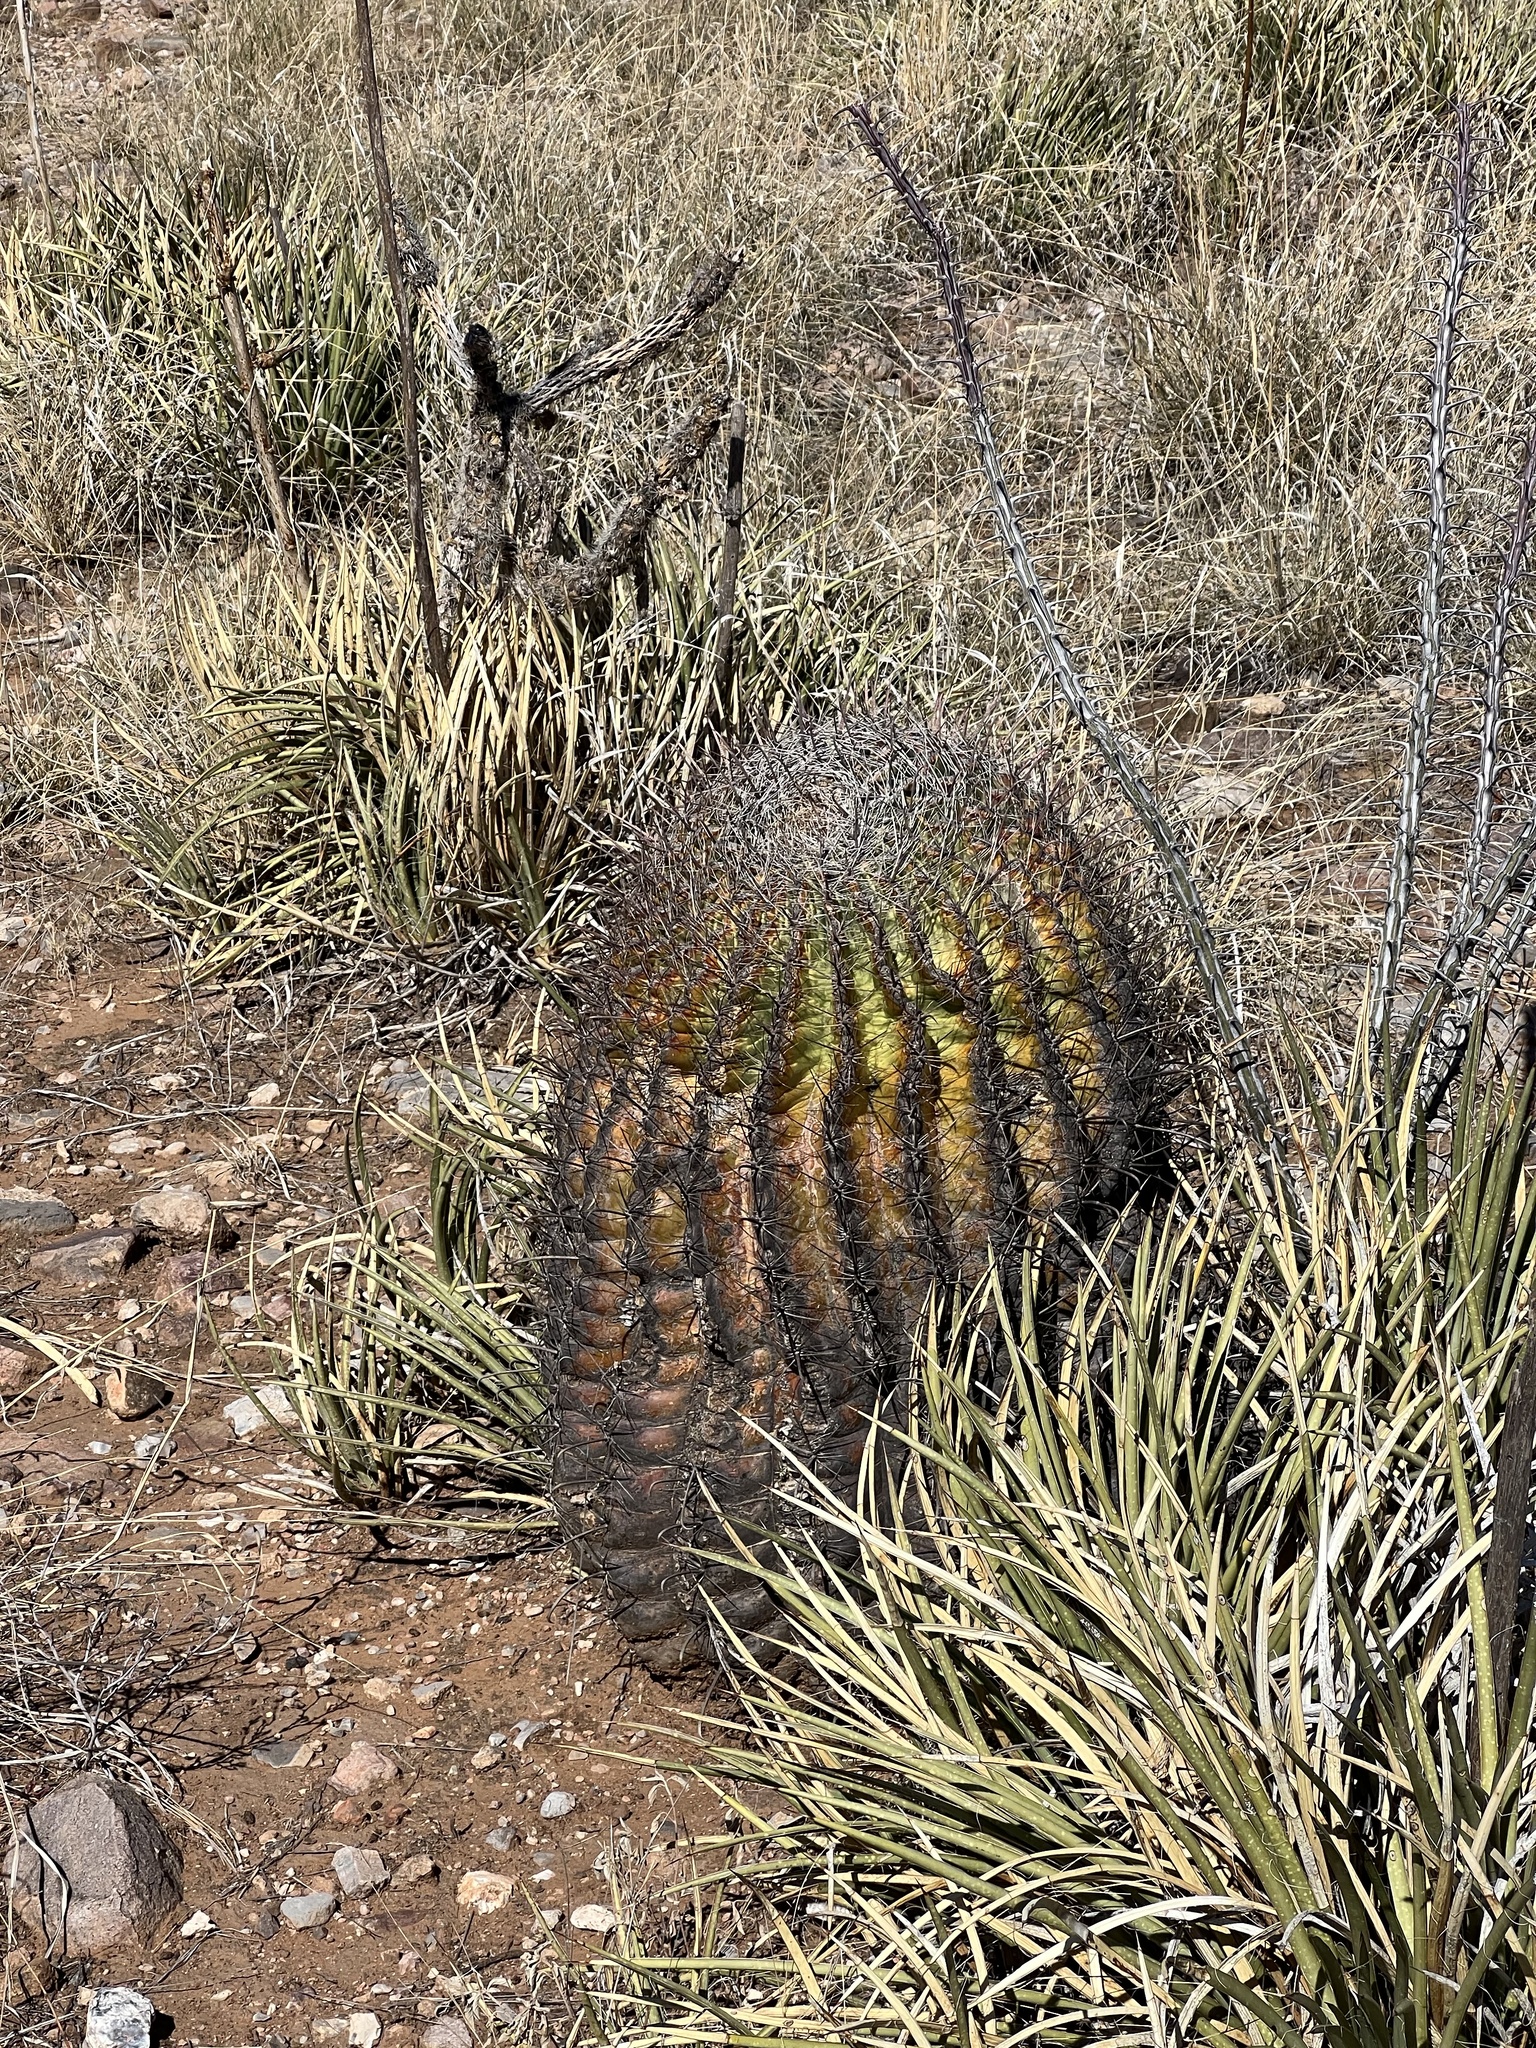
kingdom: Plantae
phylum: Tracheophyta
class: Magnoliopsida
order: Caryophyllales
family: Cactaceae
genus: Ferocactus
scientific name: Ferocactus wislizeni
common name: Candy barrel cactus
